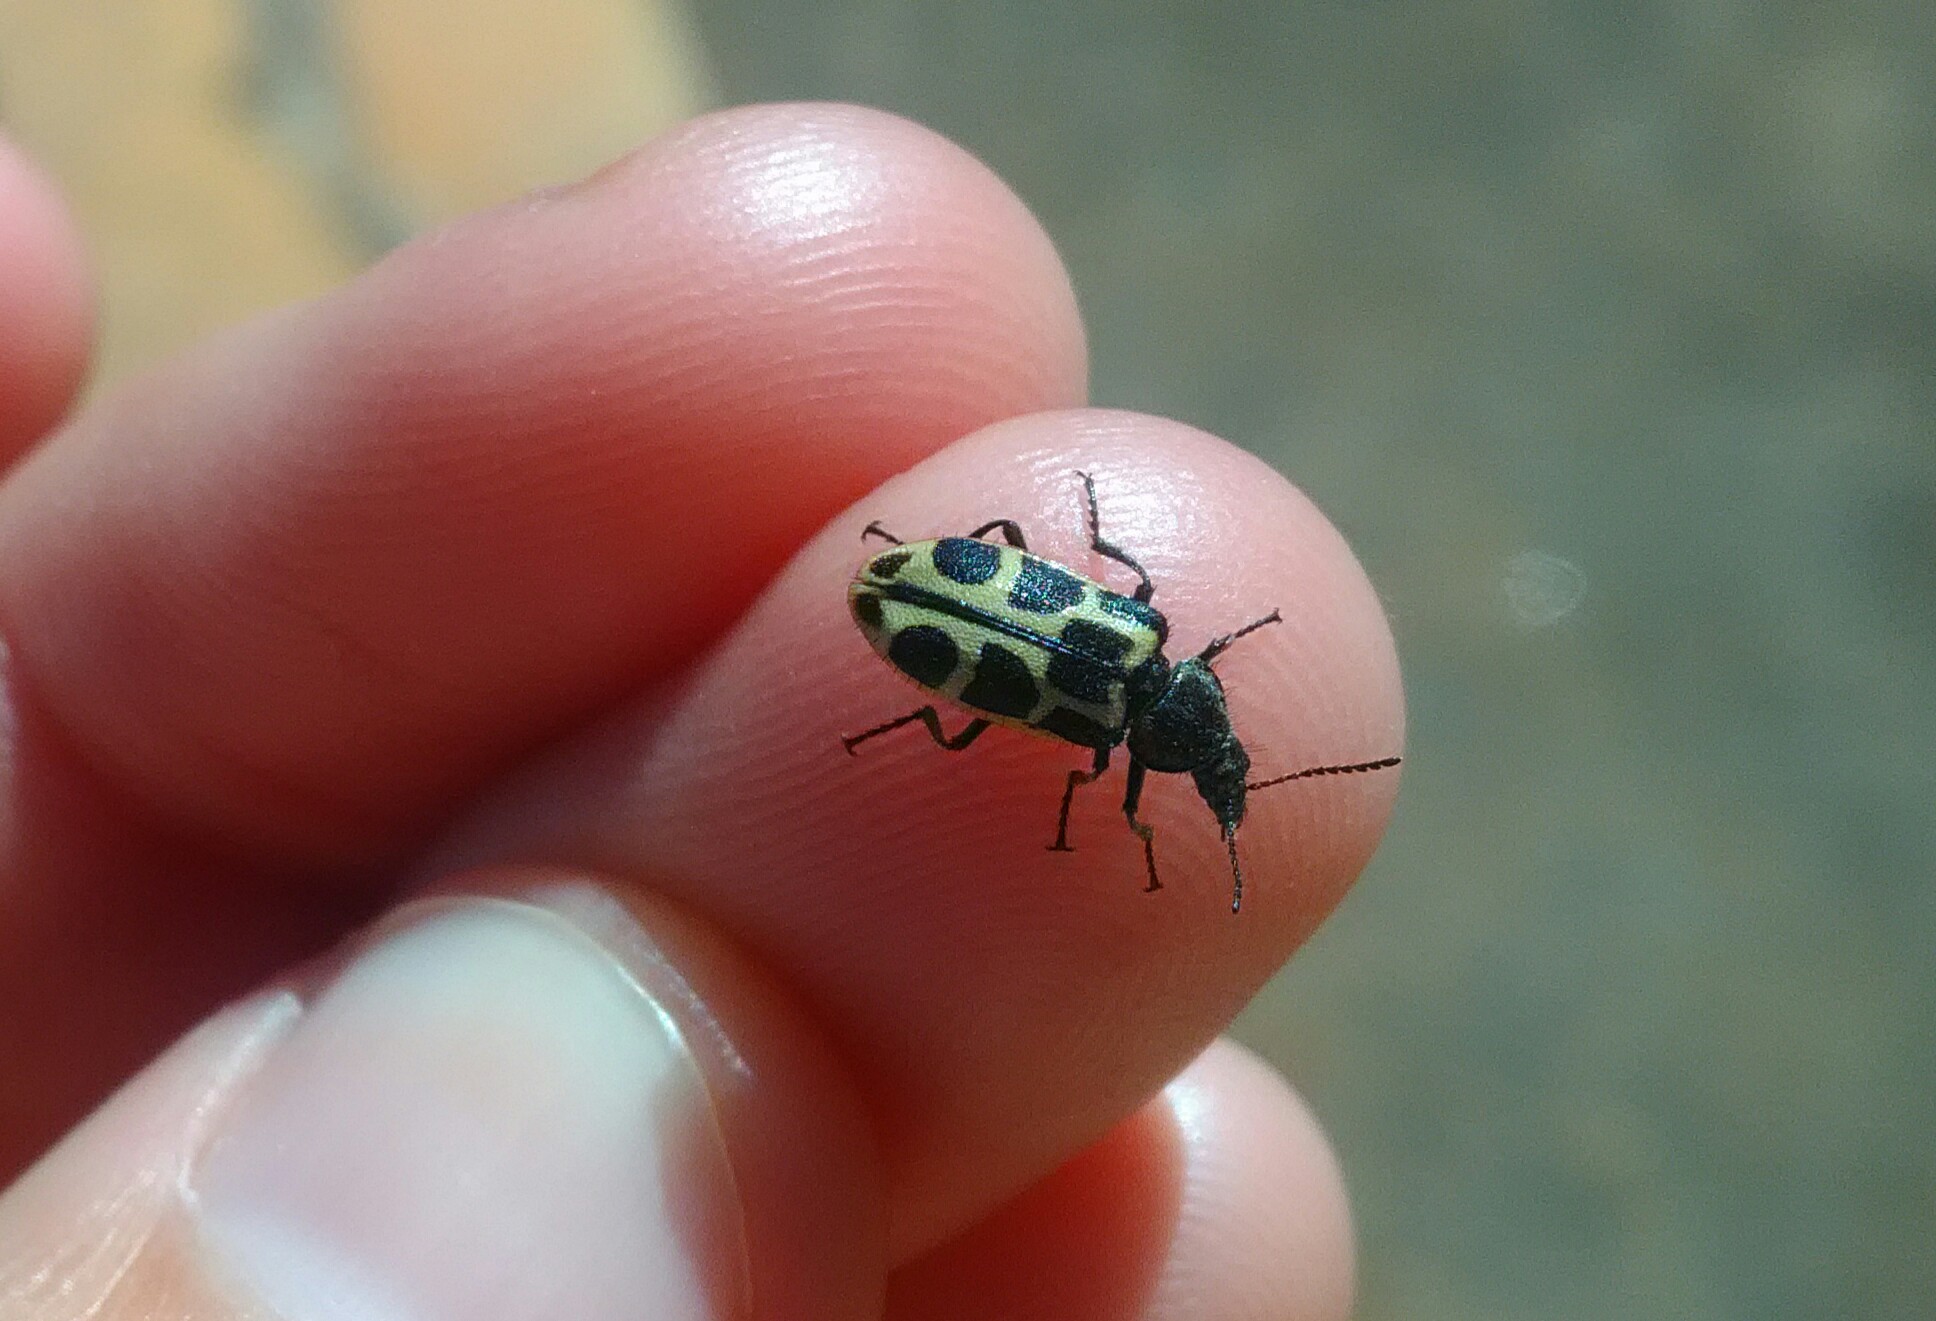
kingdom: Animalia
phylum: Arthropoda
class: Insecta
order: Coleoptera
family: Melyridae
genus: Astylus
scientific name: Astylus
